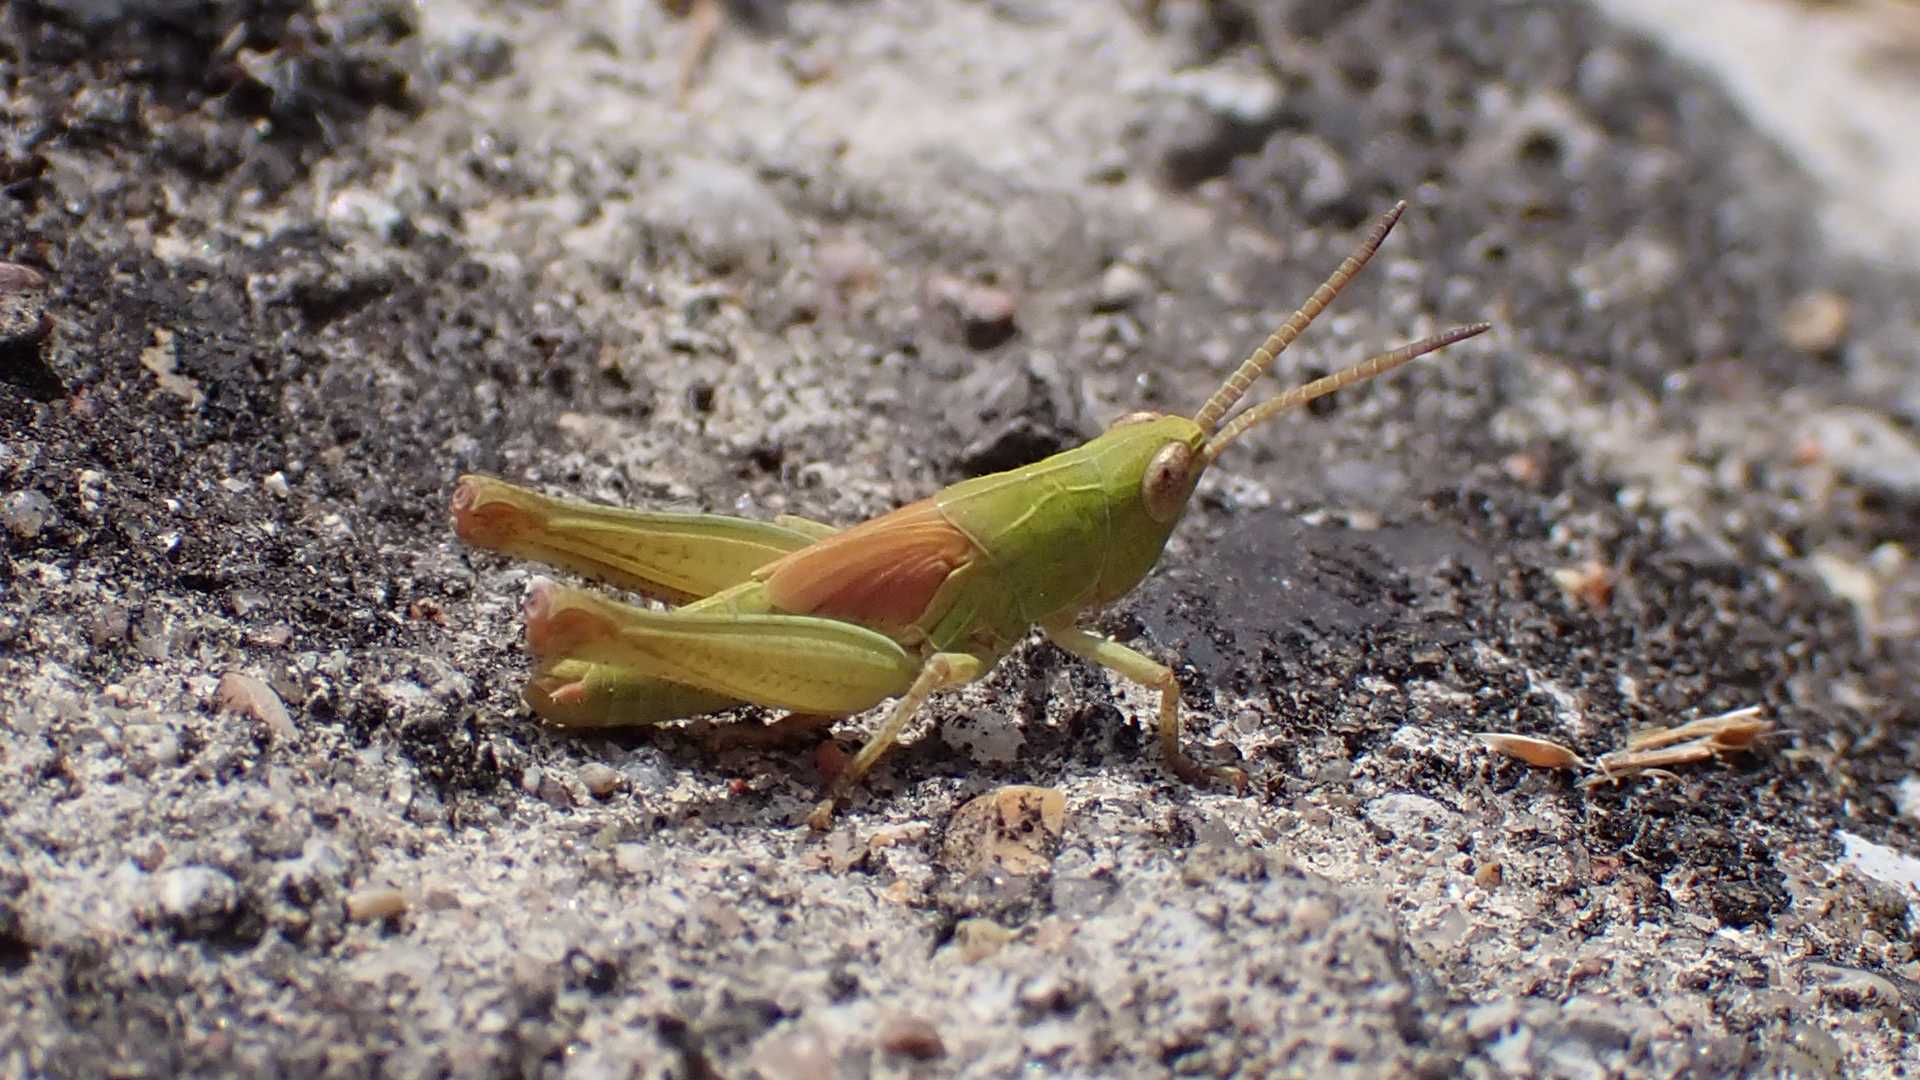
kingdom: Animalia
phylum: Arthropoda
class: Insecta
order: Orthoptera
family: Acrididae
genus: Glyptobothrus
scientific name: Glyptobothrus
